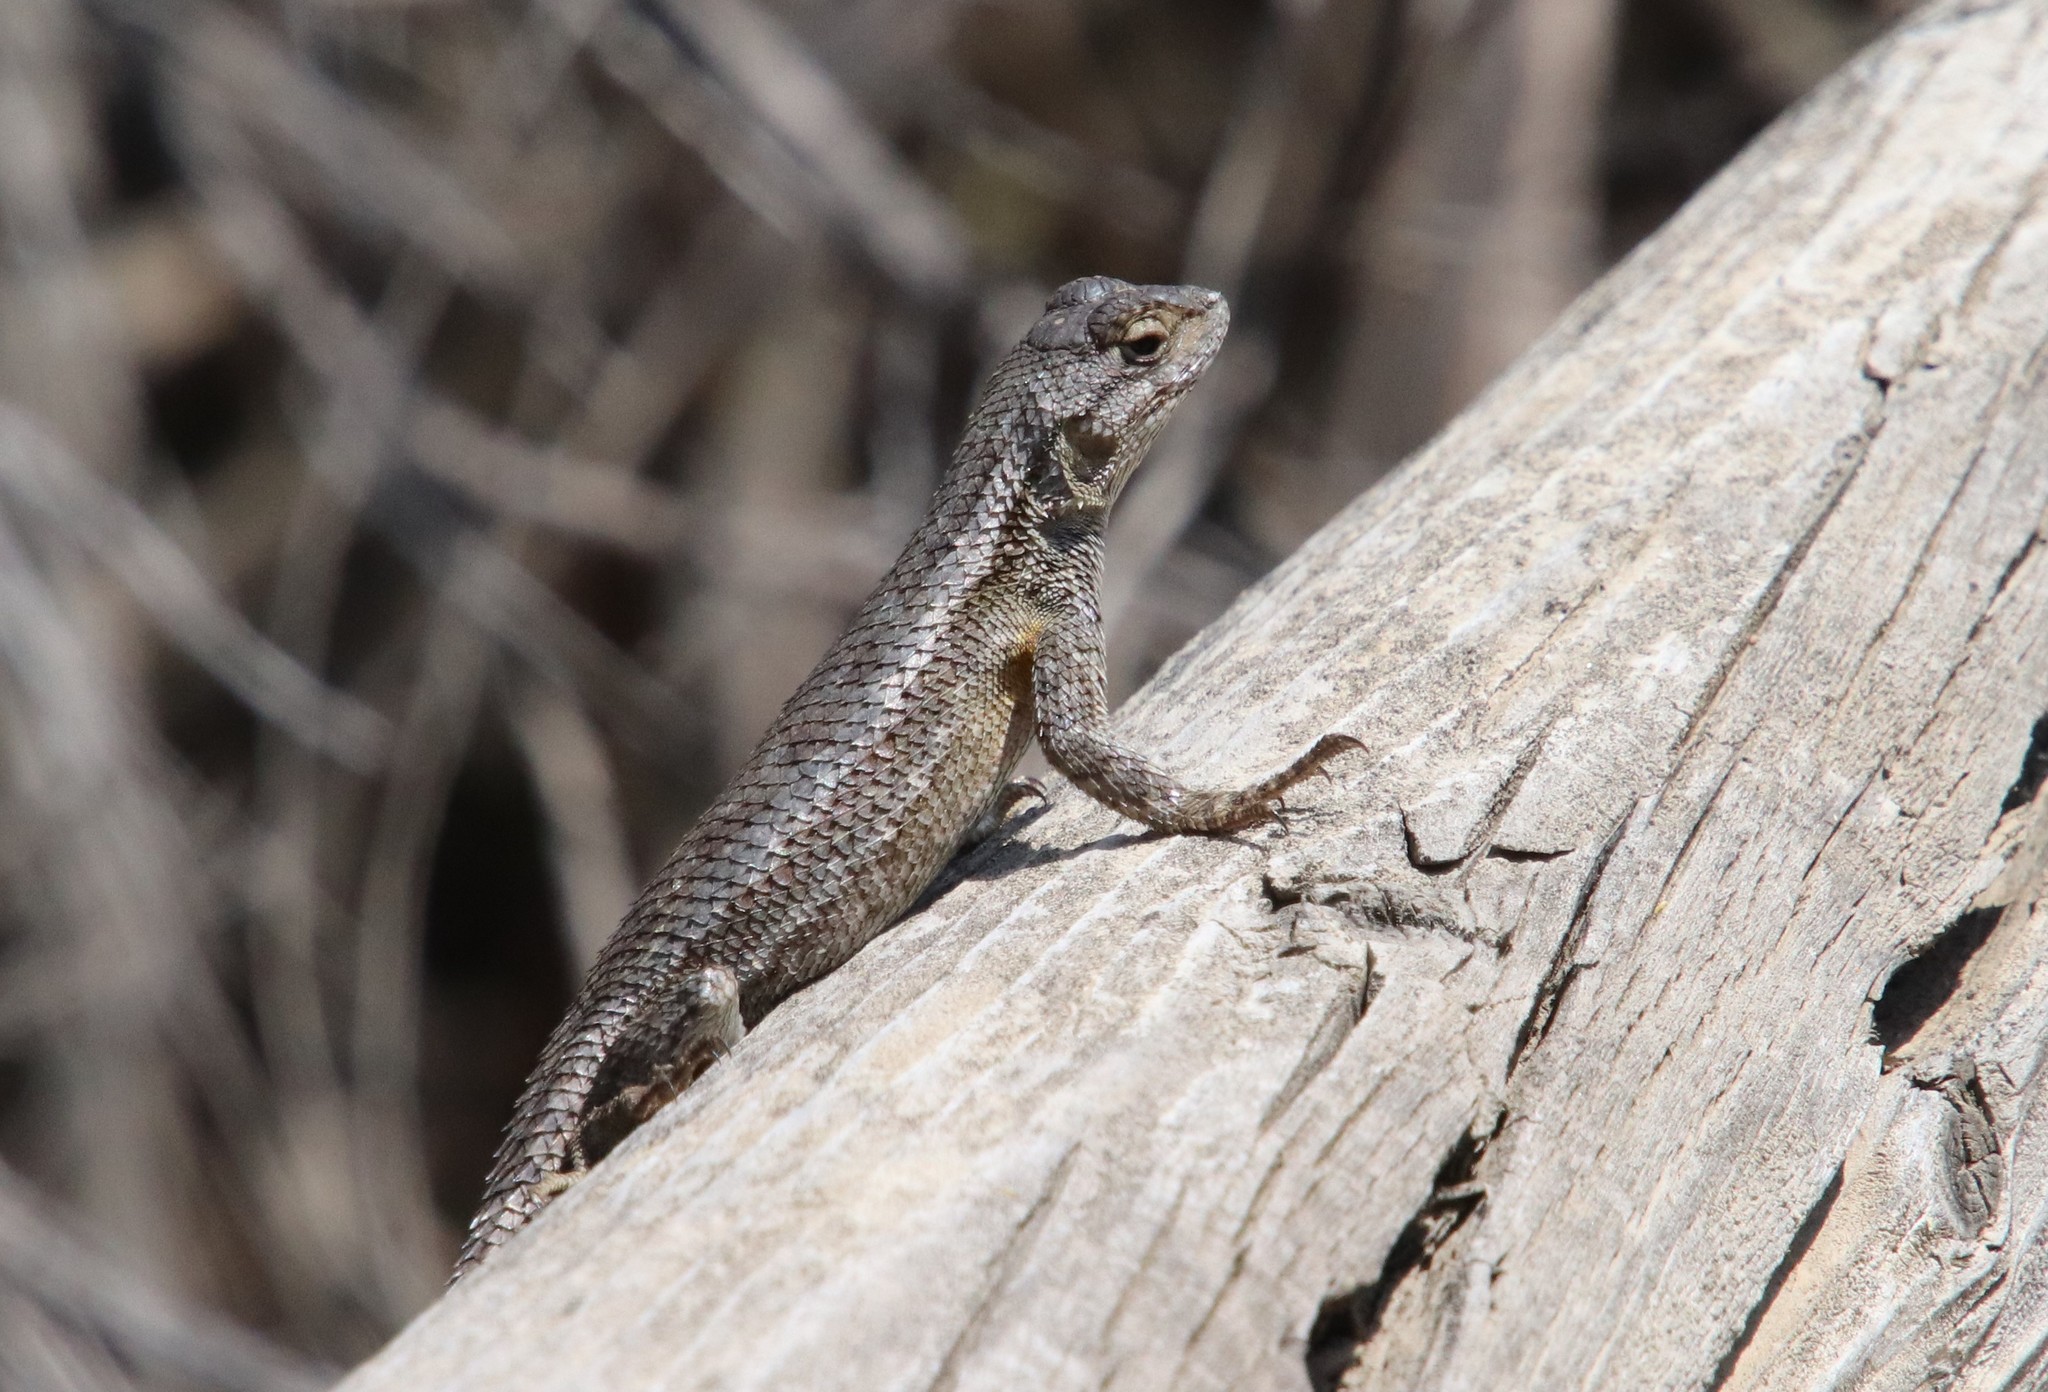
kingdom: Animalia
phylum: Chordata
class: Squamata
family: Phrynosomatidae
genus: Sceloporus
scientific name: Sceloporus occidentalis
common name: Western fence lizard
